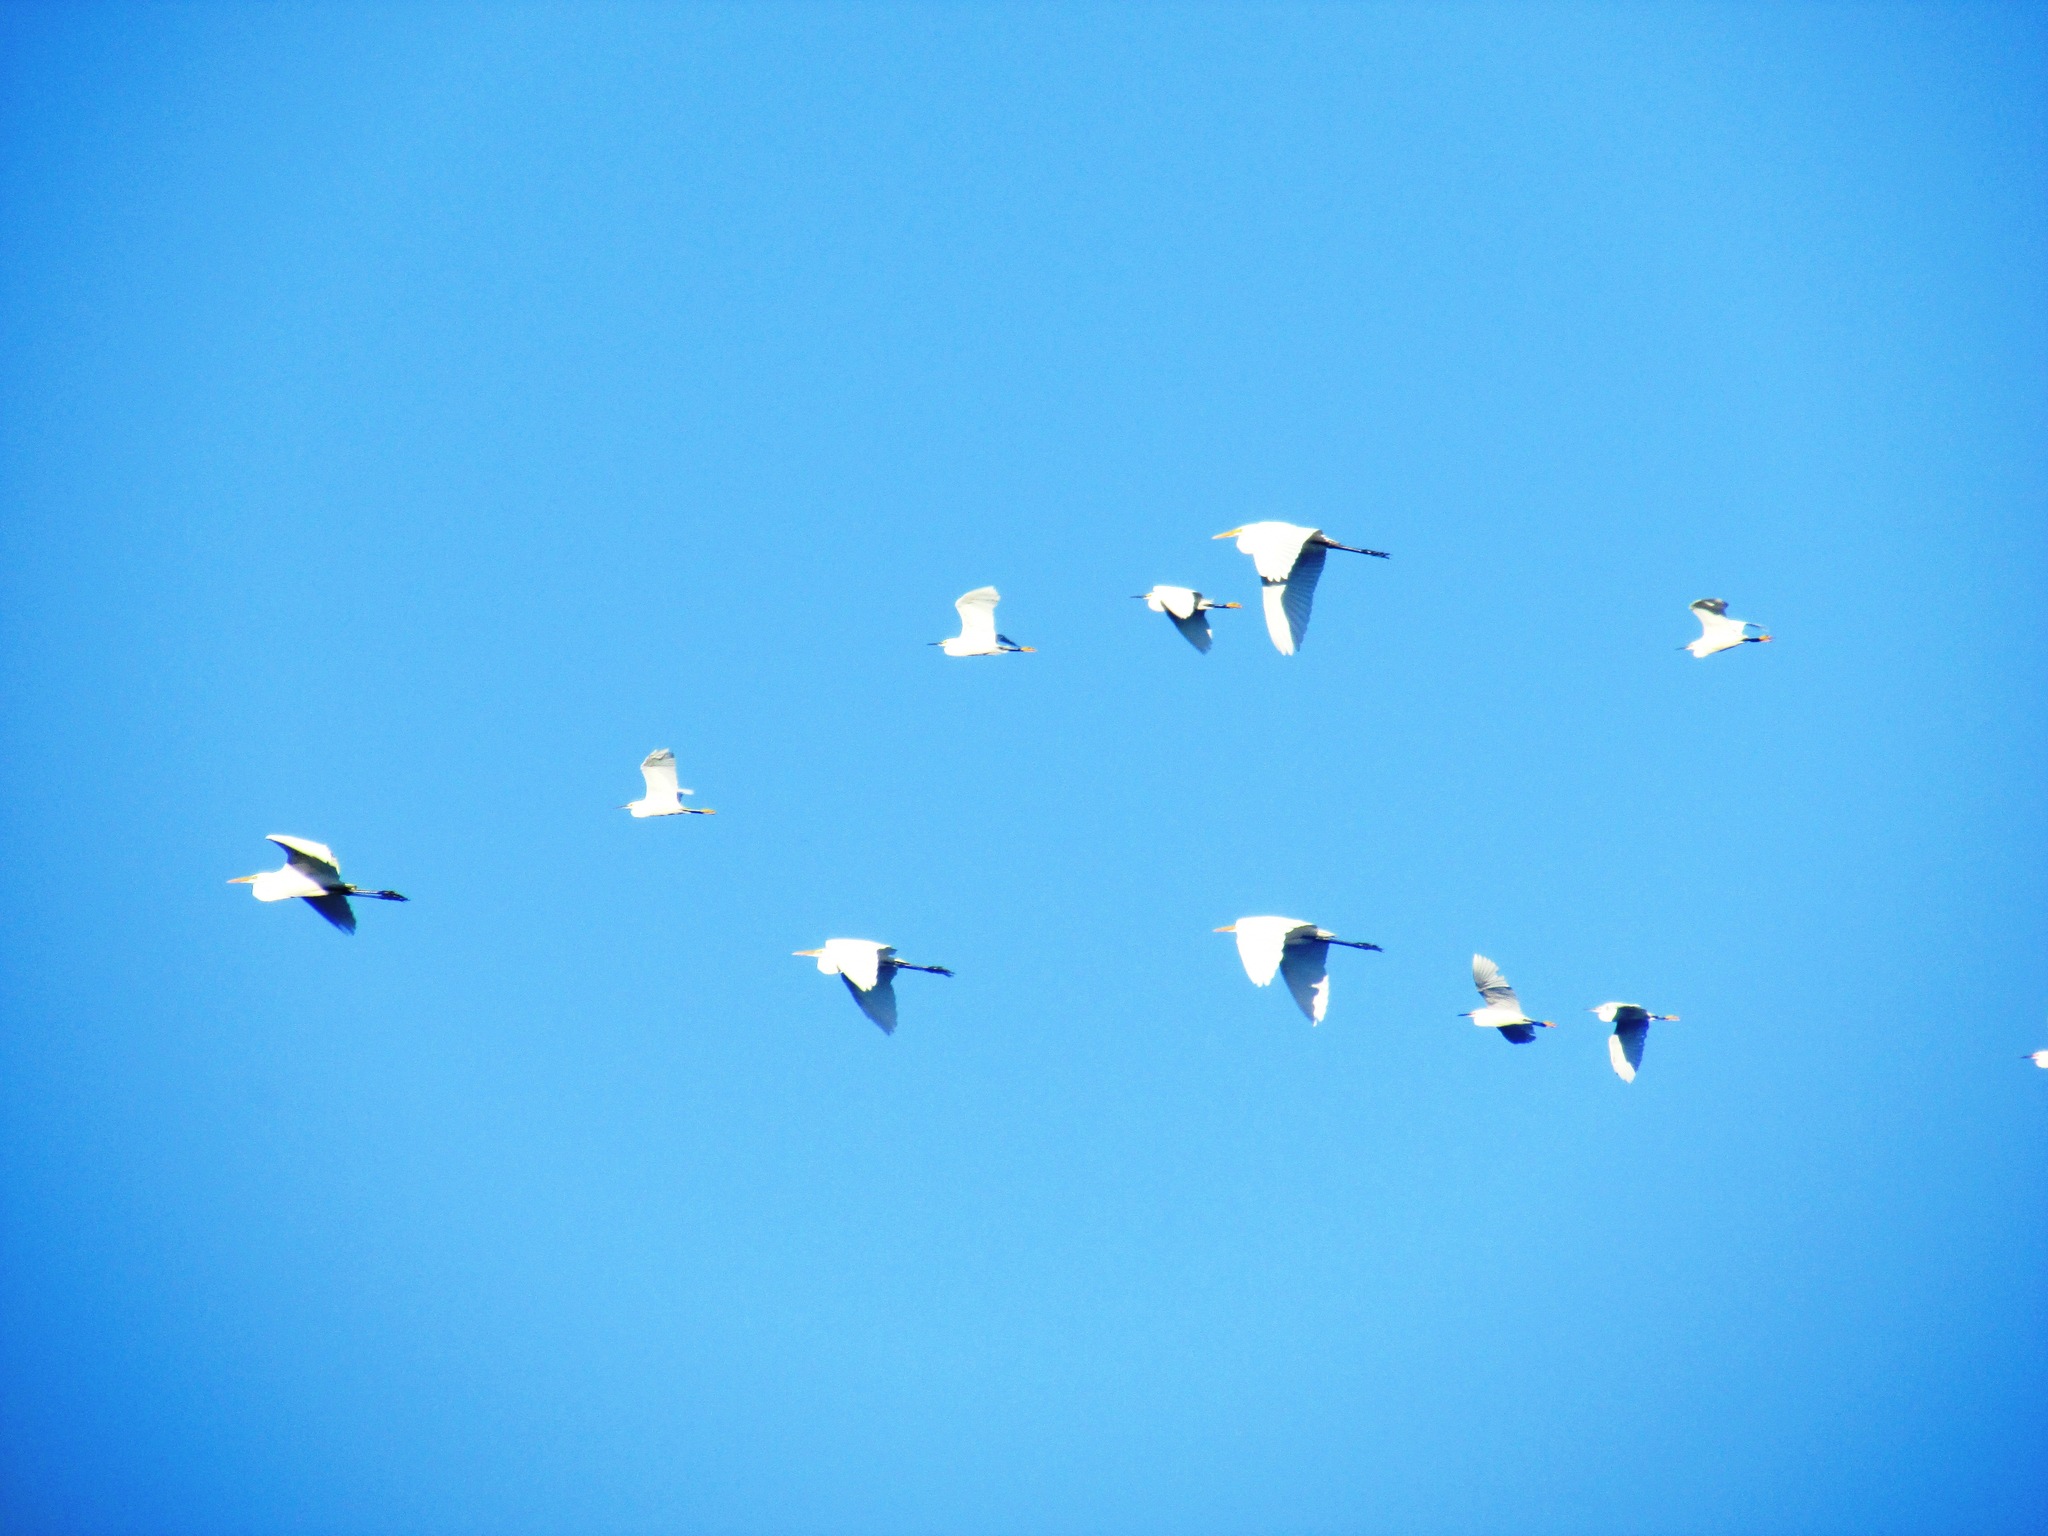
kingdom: Animalia
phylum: Chordata
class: Aves
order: Pelecaniformes
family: Ardeidae
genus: Egretta
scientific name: Egretta thula
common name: Snowy egret
